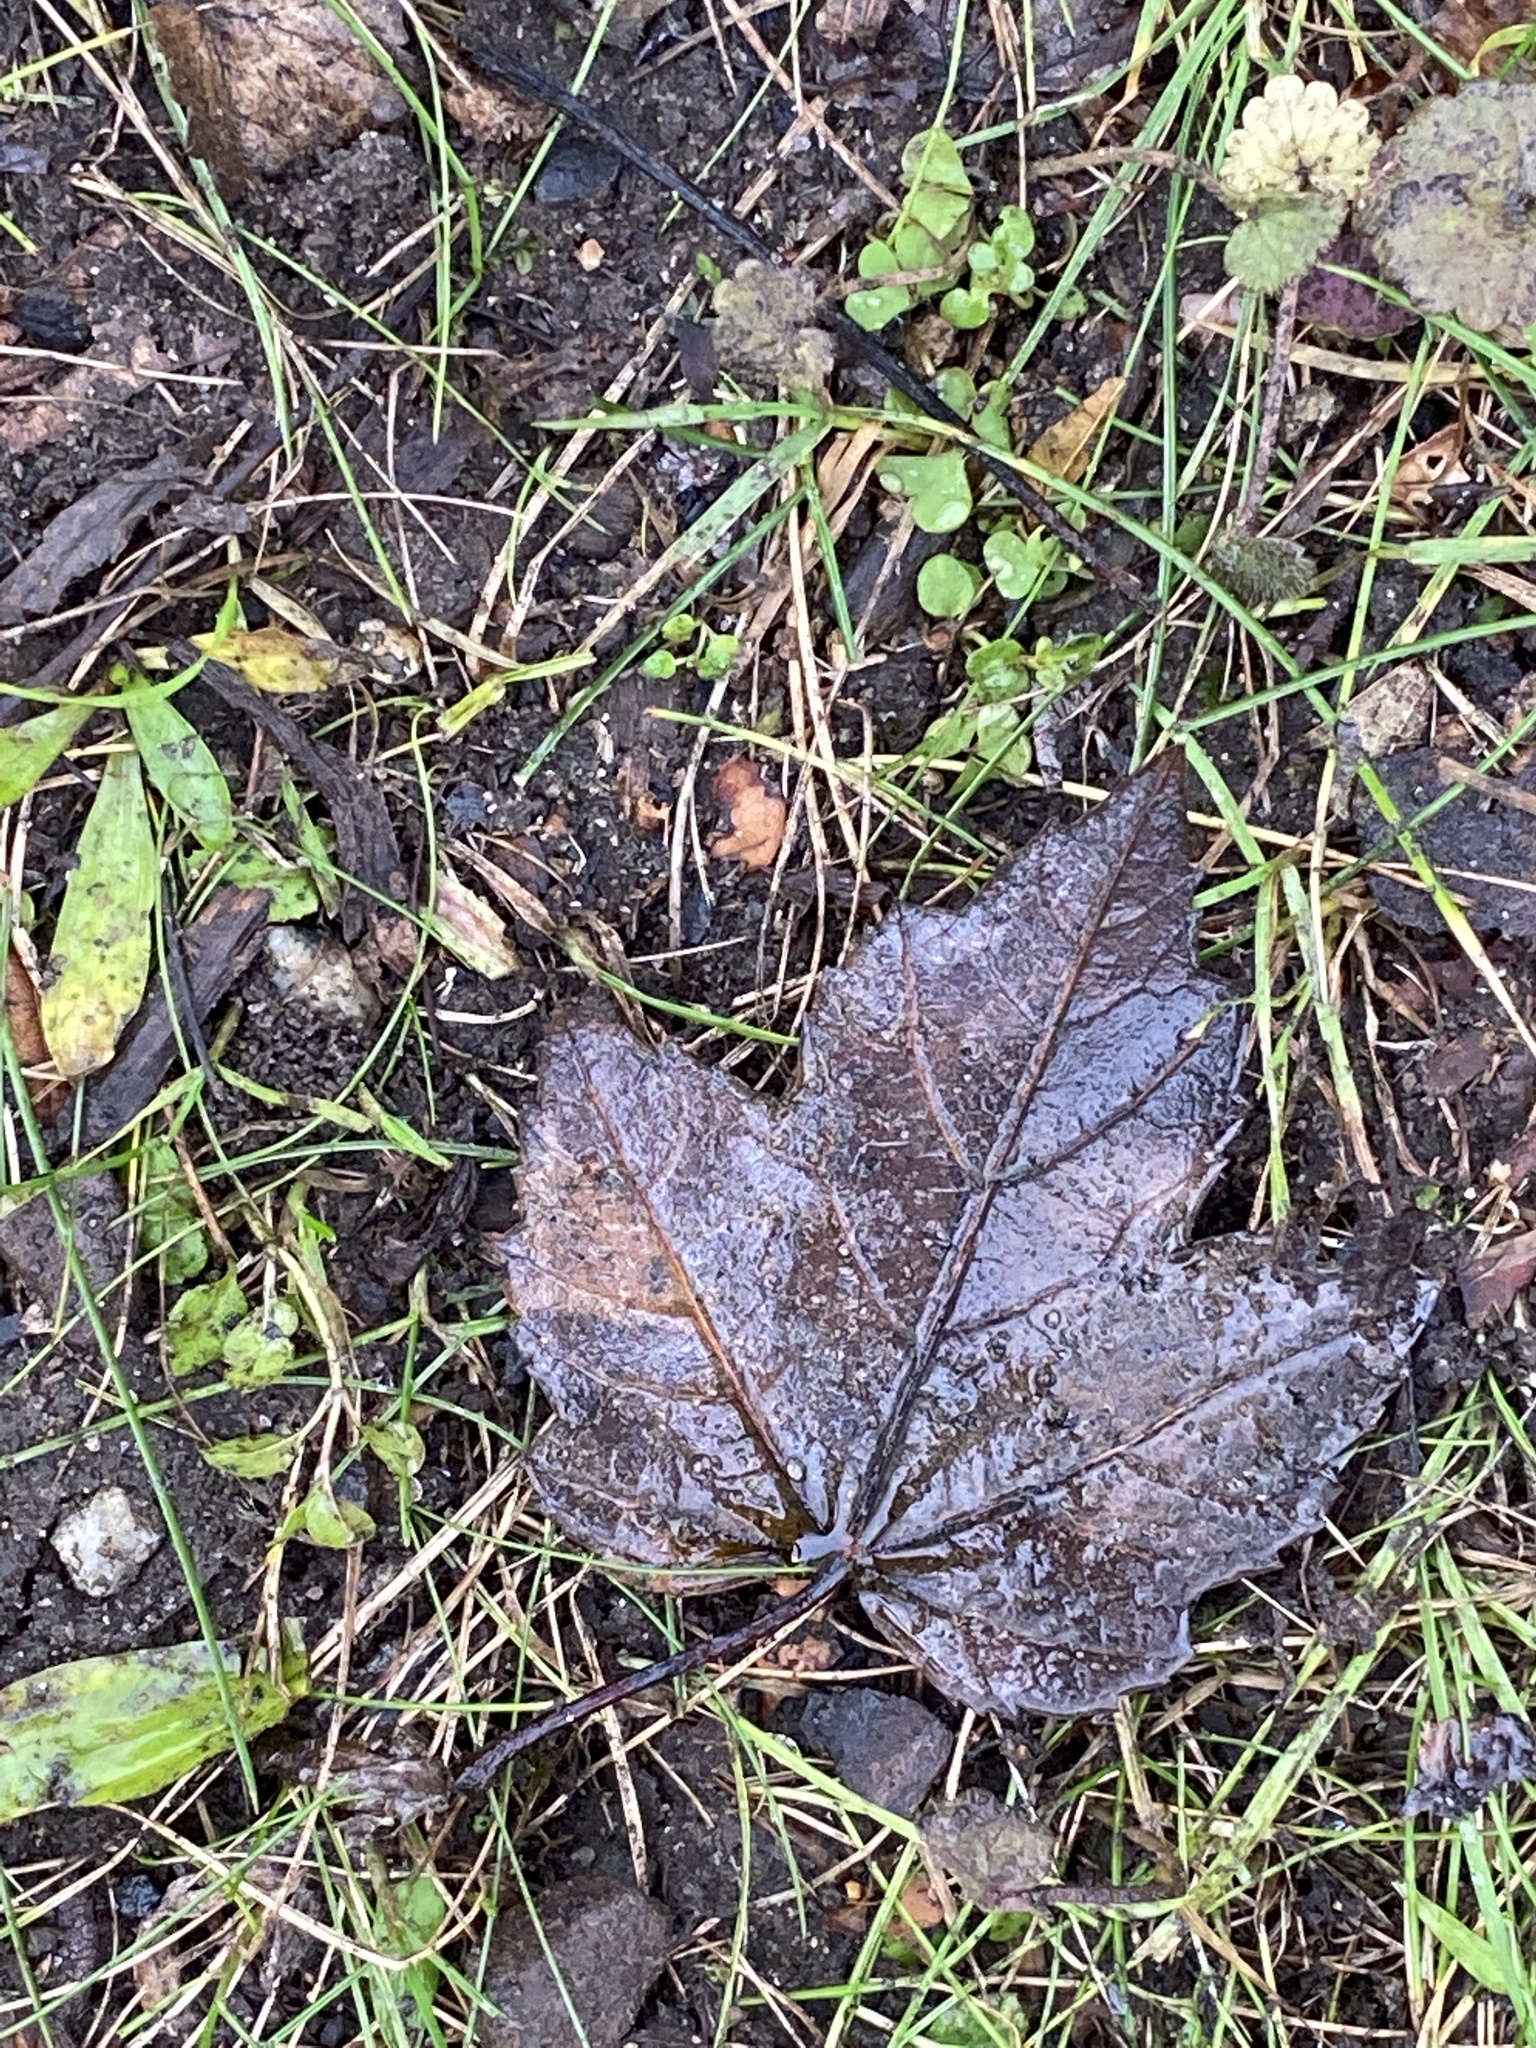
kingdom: Plantae
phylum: Tracheophyta
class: Magnoliopsida
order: Sapindales
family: Sapindaceae
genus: Acer
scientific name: Acer rubrum
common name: Red maple
